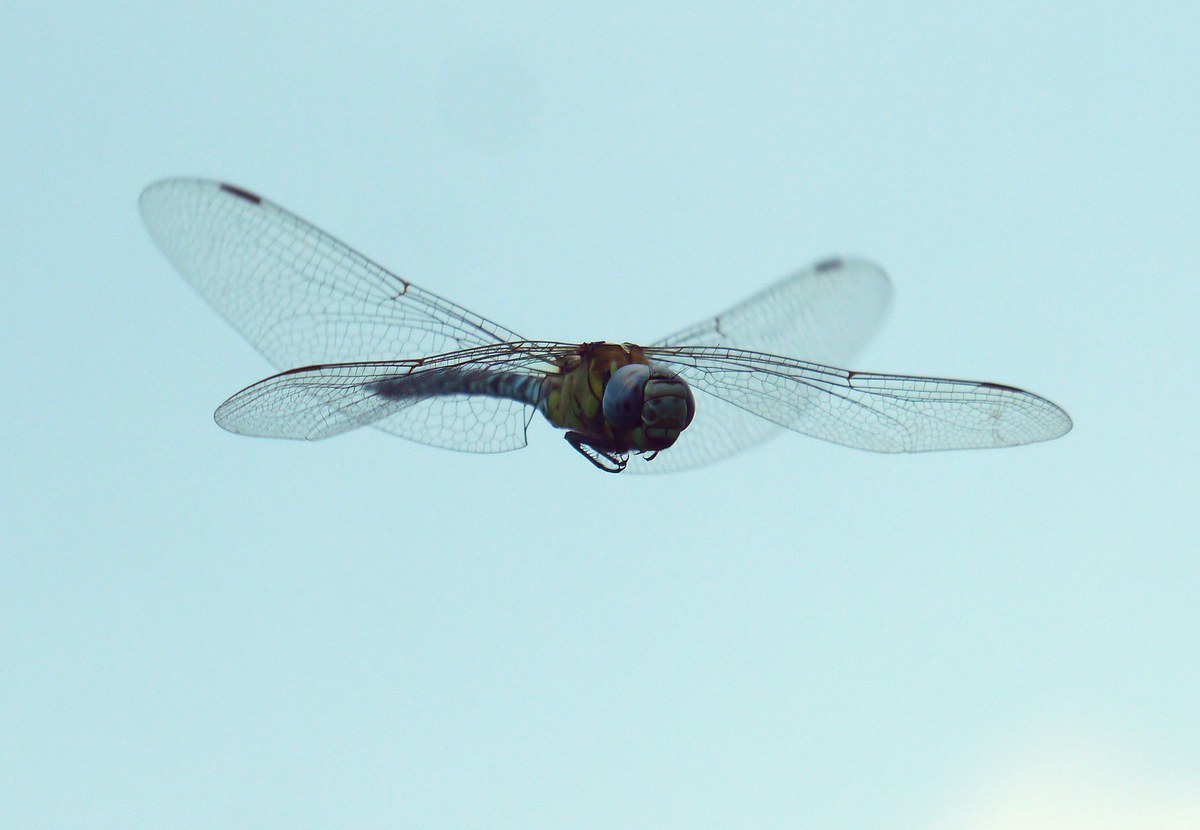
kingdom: Animalia
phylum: Arthropoda
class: Insecta
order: Odonata
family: Aeshnidae
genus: Aeshna
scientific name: Aeshna affinis
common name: Southern migrant hawker
